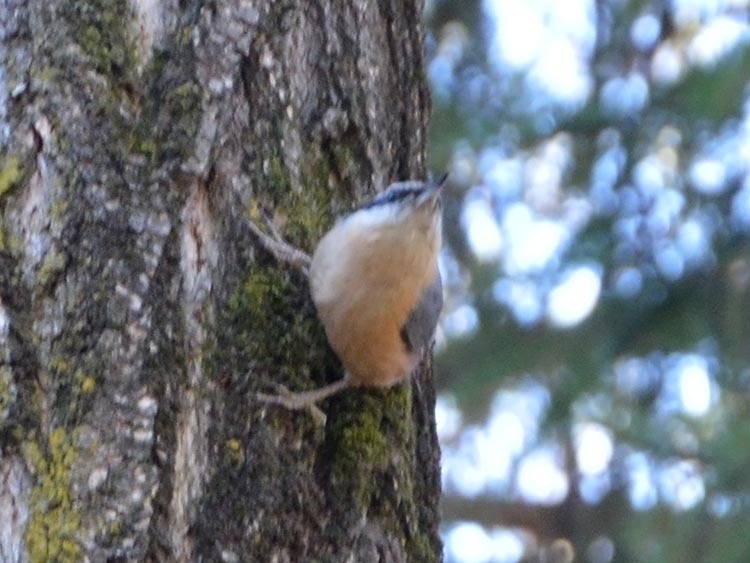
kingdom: Animalia
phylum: Chordata
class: Aves
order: Passeriformes
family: Sittidae
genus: Sitta
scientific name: Sitta europaea
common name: Eurasian nuthatch
